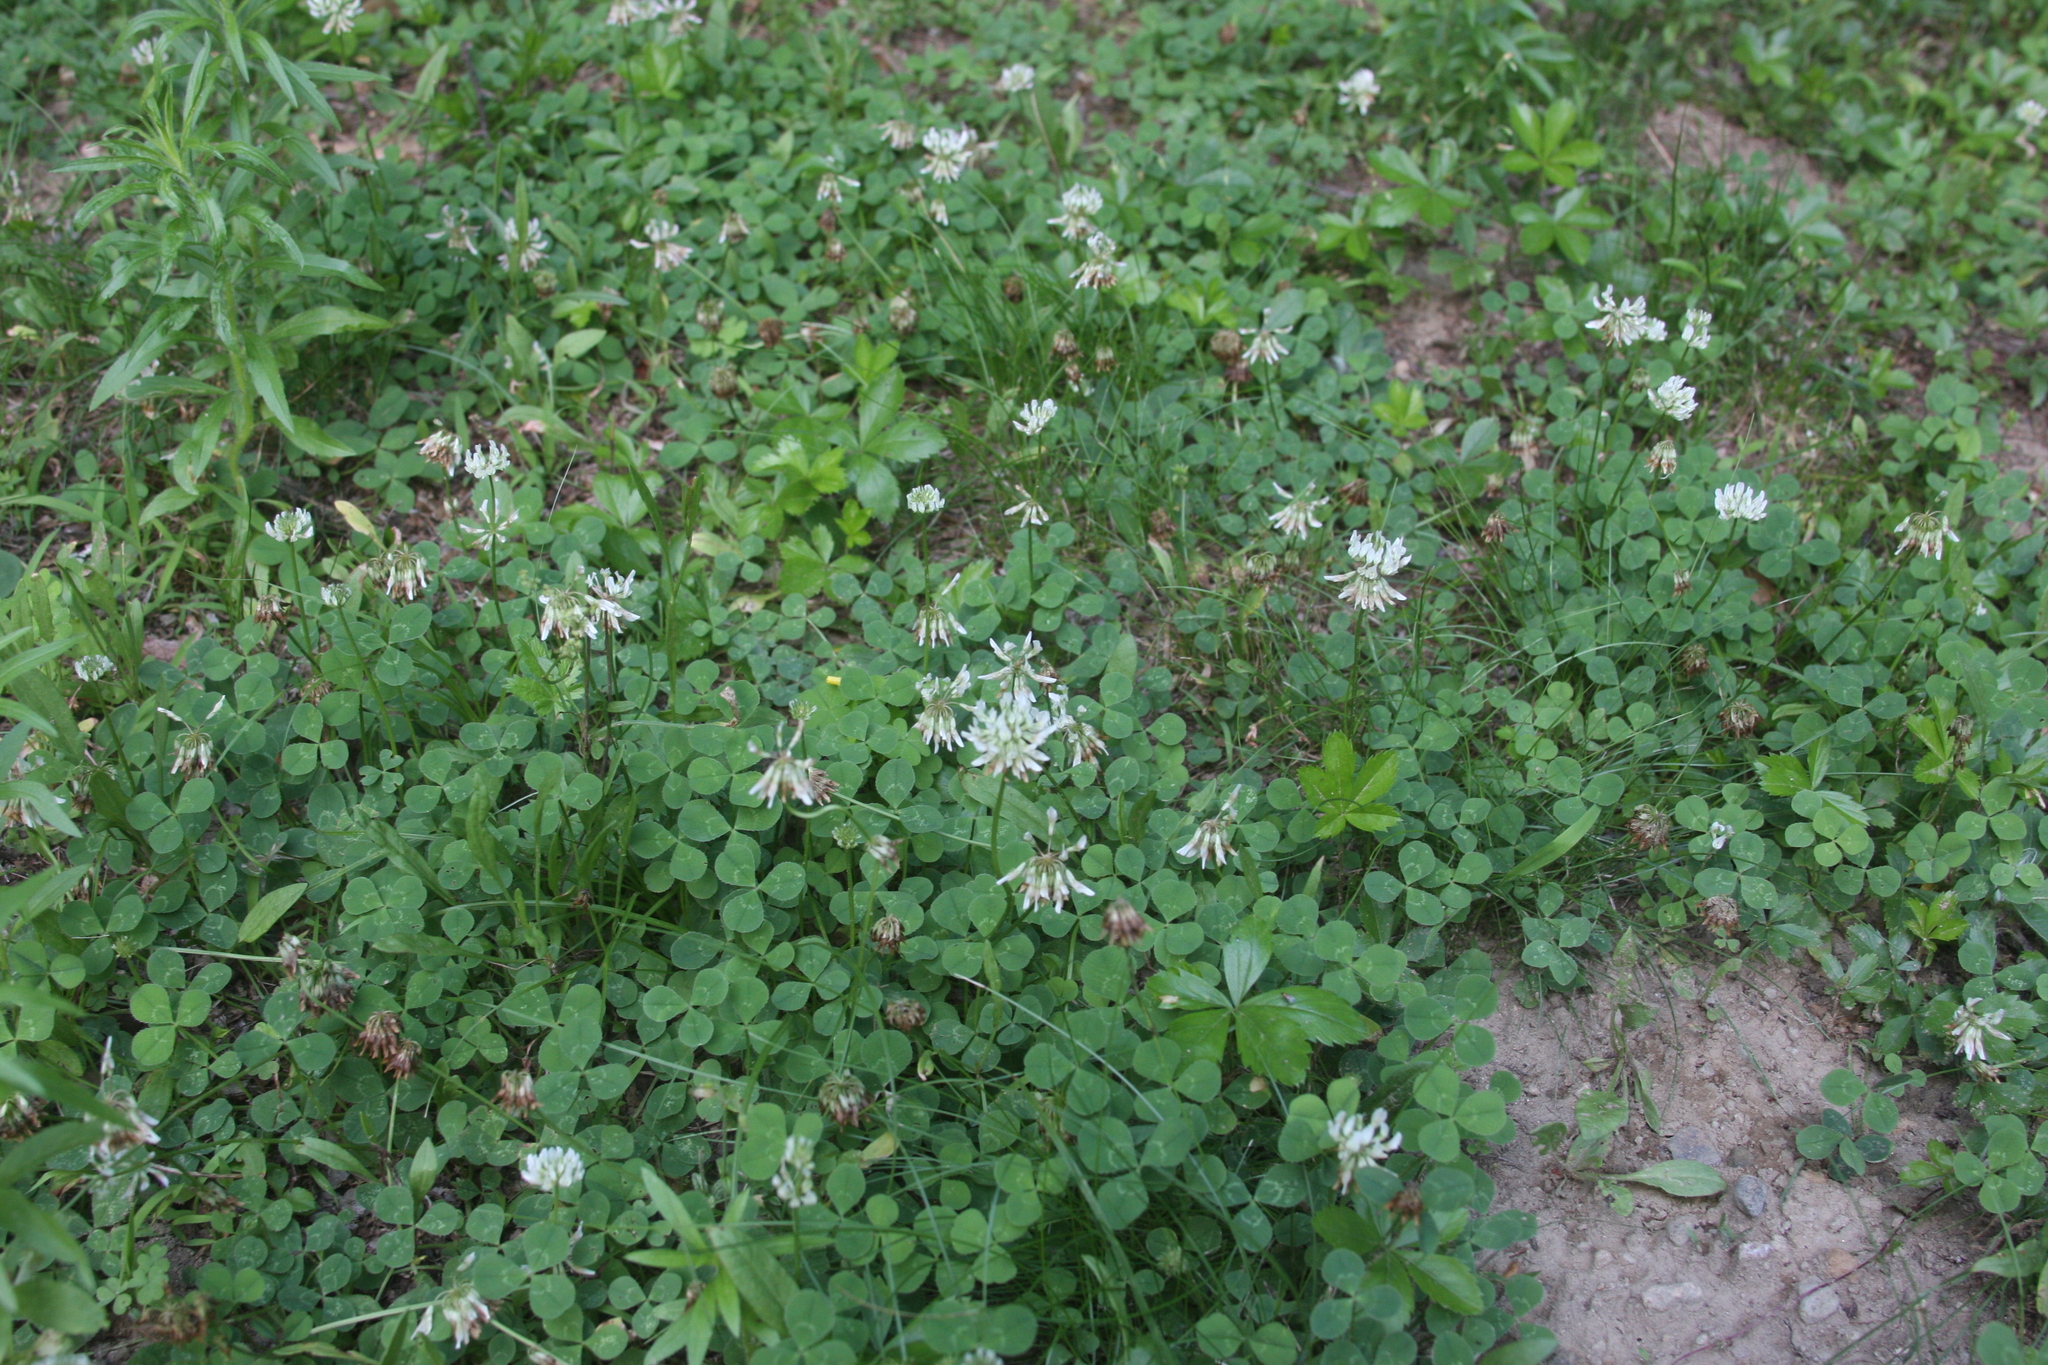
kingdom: Plantae
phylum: Tracheophyta
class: Magnoliopsida
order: Fabales
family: Fabaceae
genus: Trifolium
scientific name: Trifolium repens
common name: White clover
